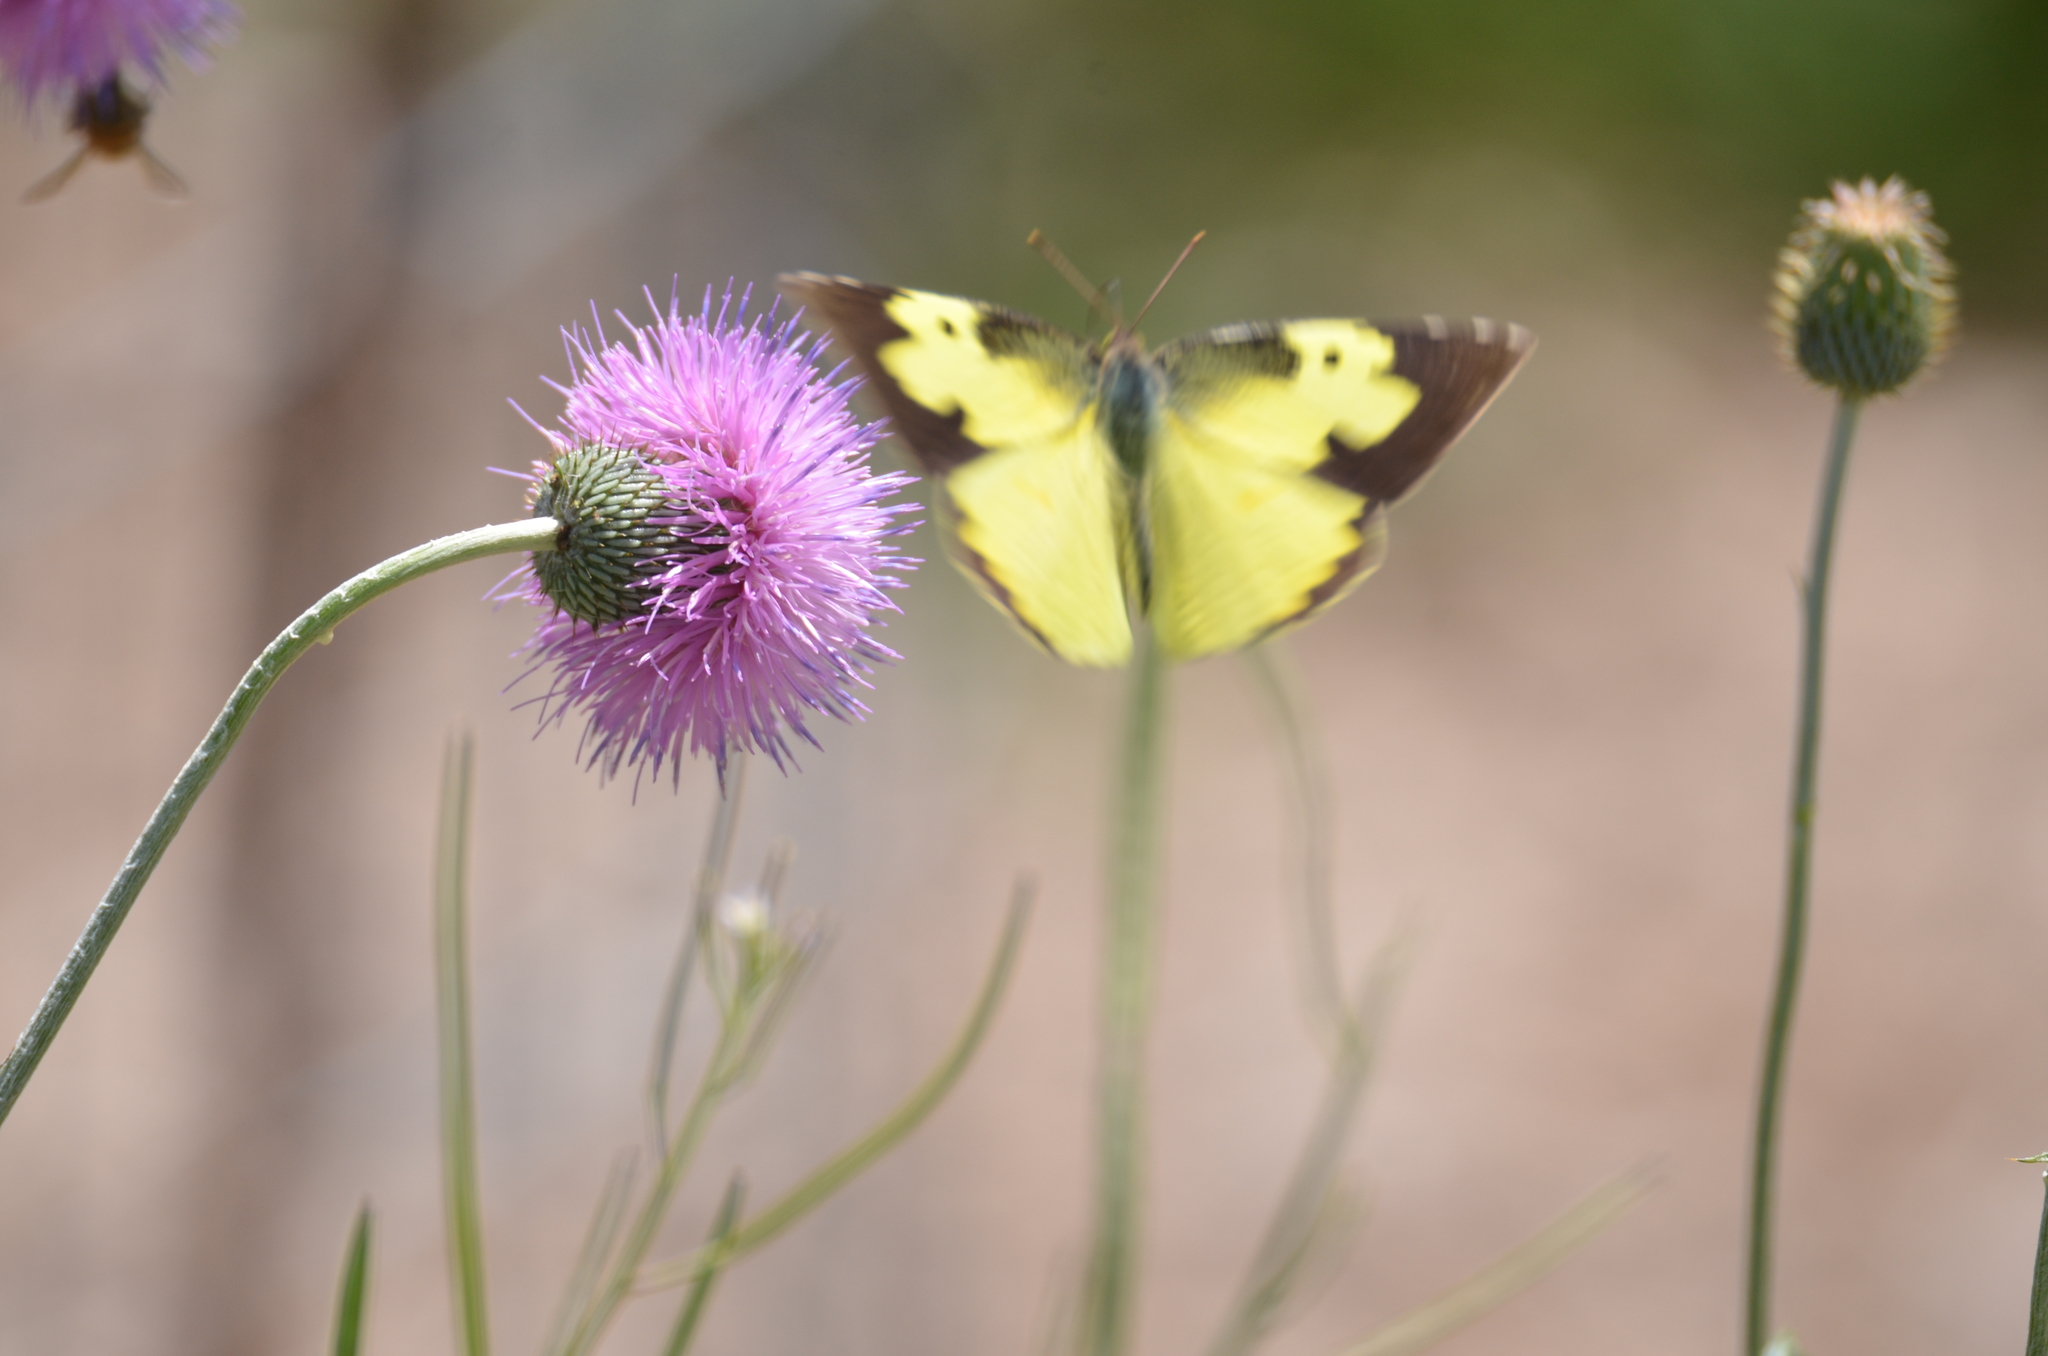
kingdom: Animalia
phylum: Arthropoda
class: Insecta
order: Lepidoptera
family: Pieridae
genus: Zerene
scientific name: Zerene cesonia
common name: Southern dogface
